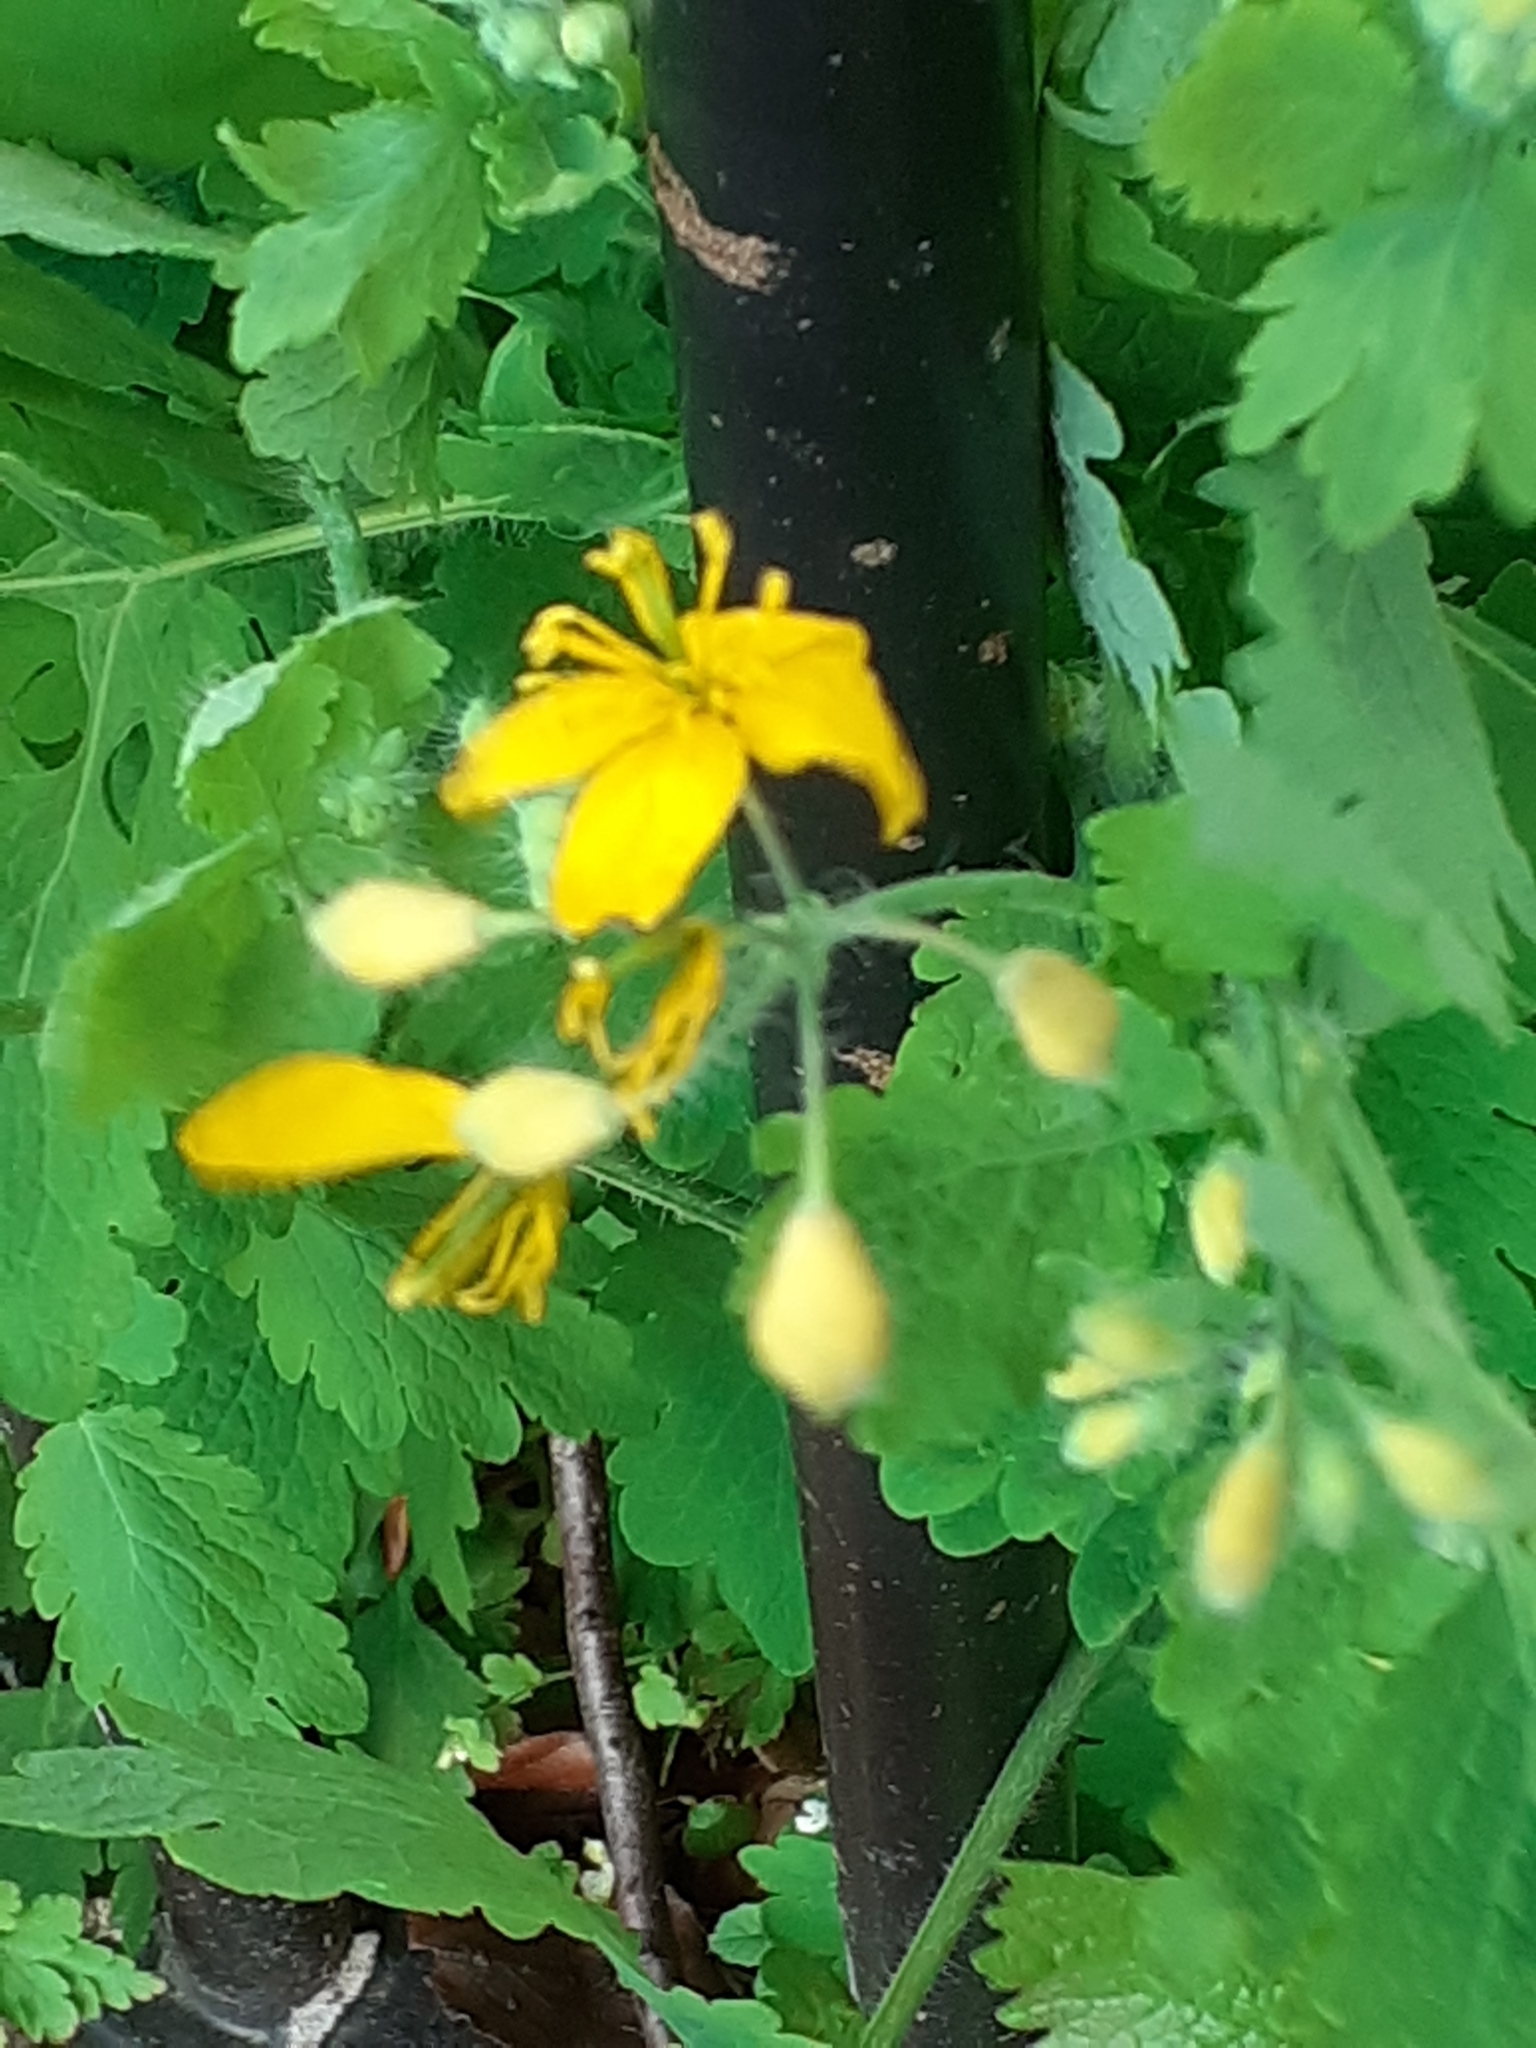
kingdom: Plantae
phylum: Tracheophyta
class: Magnoliopsida
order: Ranunculales
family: Papaveraceae
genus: Chelidonium
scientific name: Chelidonium majus
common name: Greater celandine
